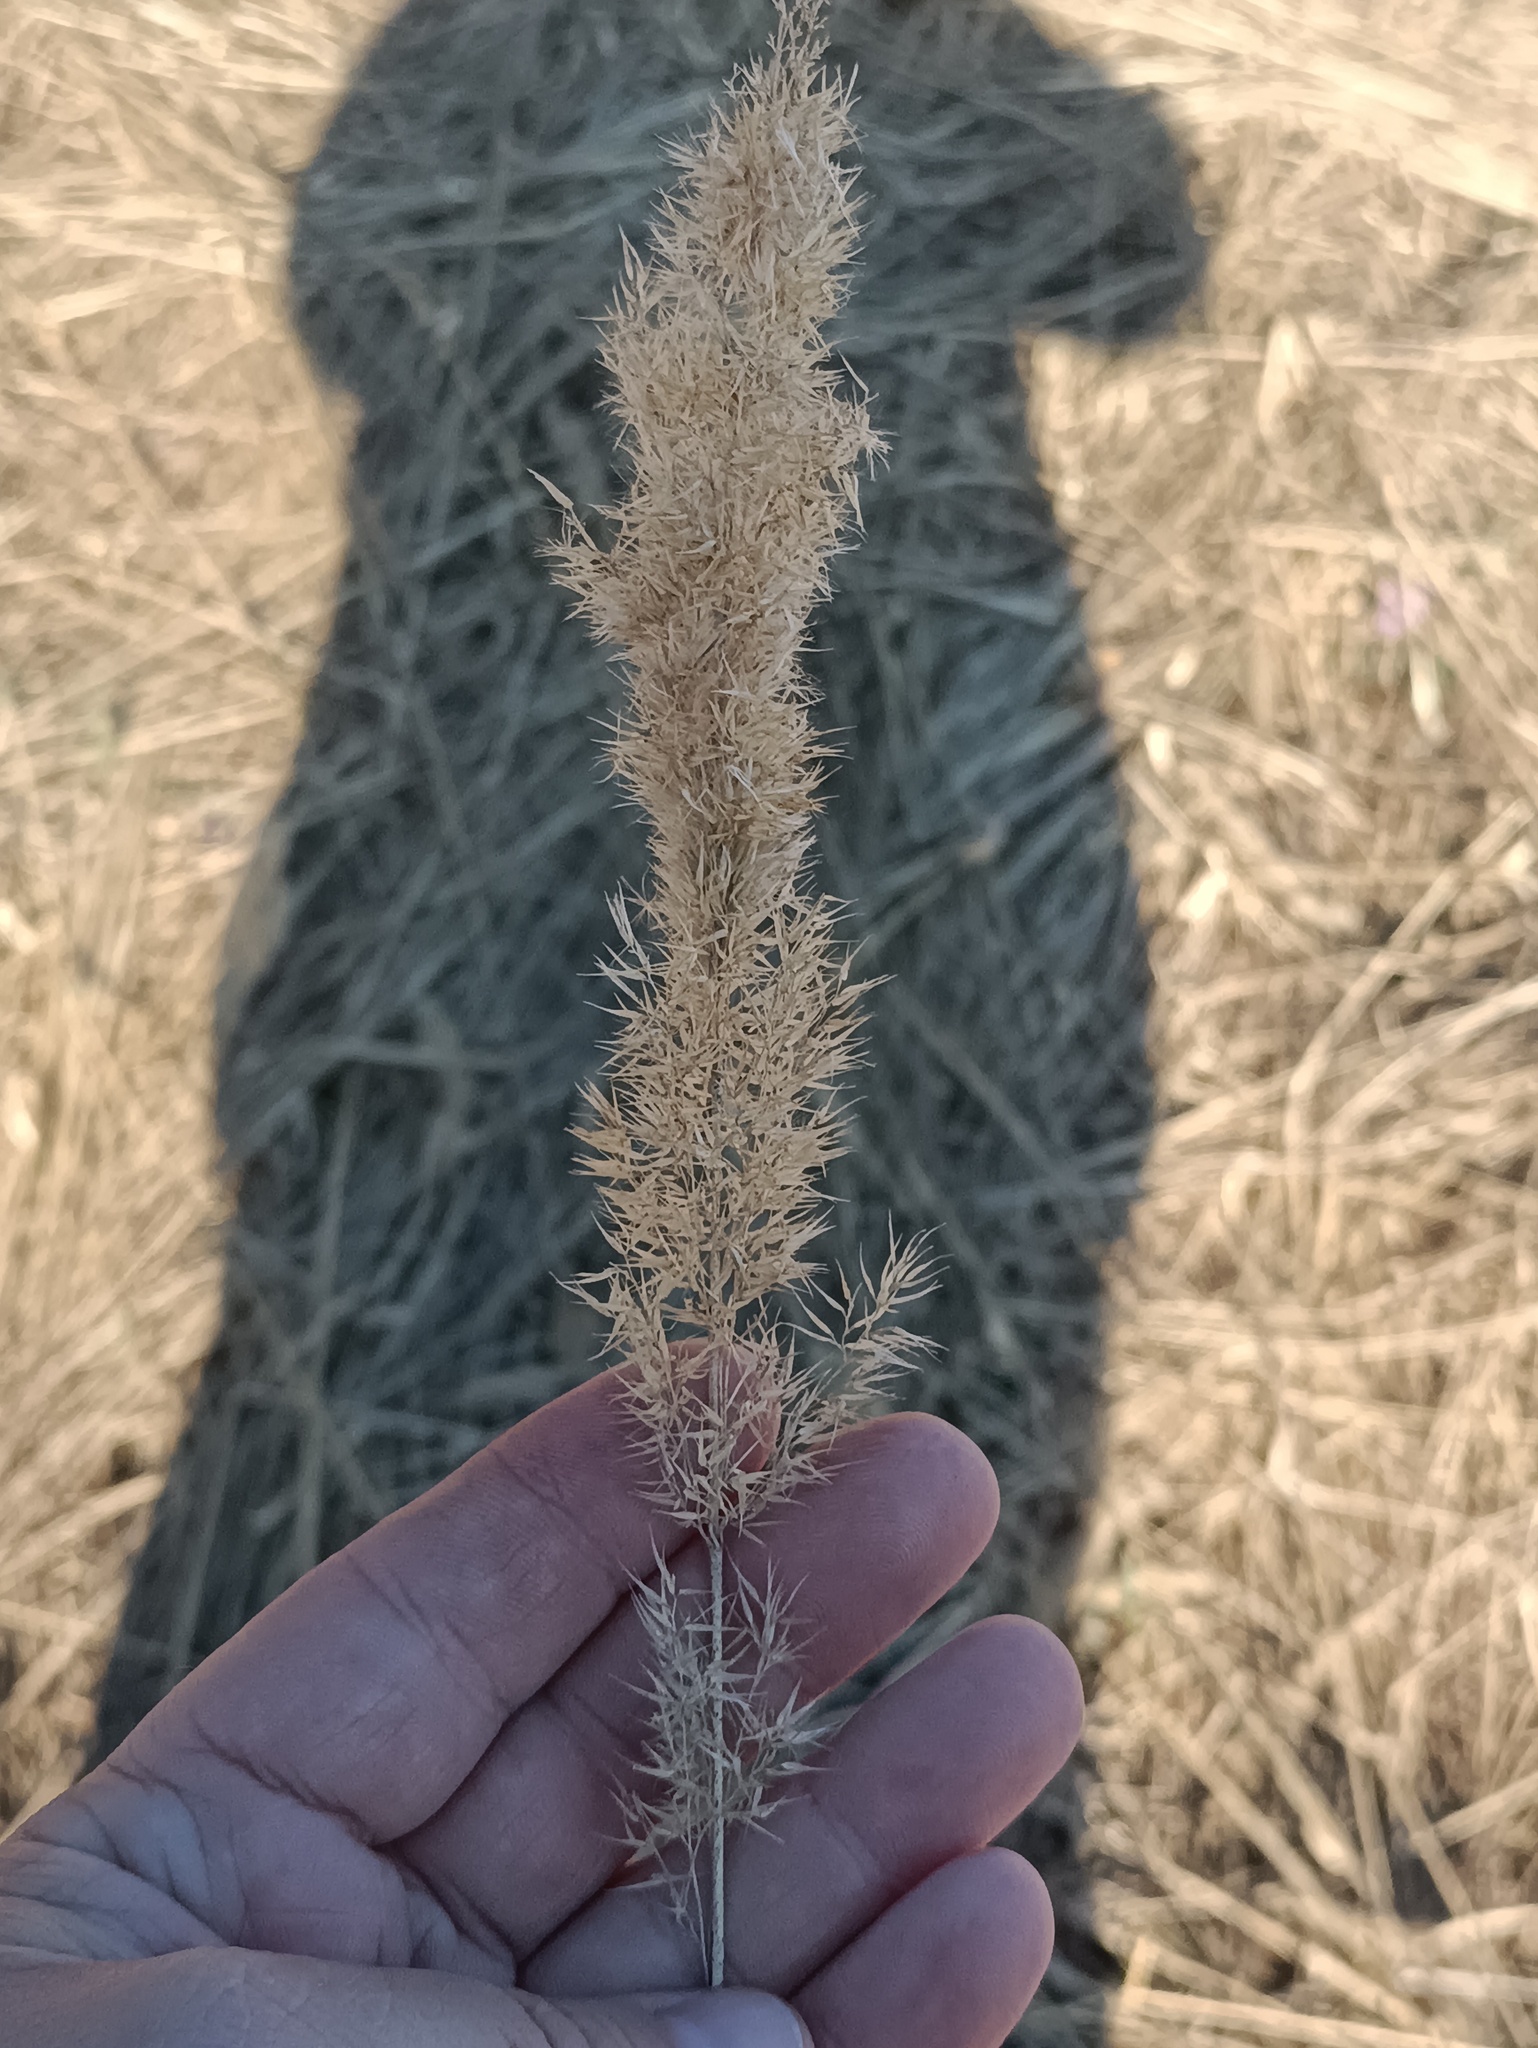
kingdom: Plantae
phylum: Tracheophyta
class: Liliopsida
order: Poales
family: Poaceae
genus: Calamagrostis
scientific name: Calamagrostis epigejos
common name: Wood small-reed
